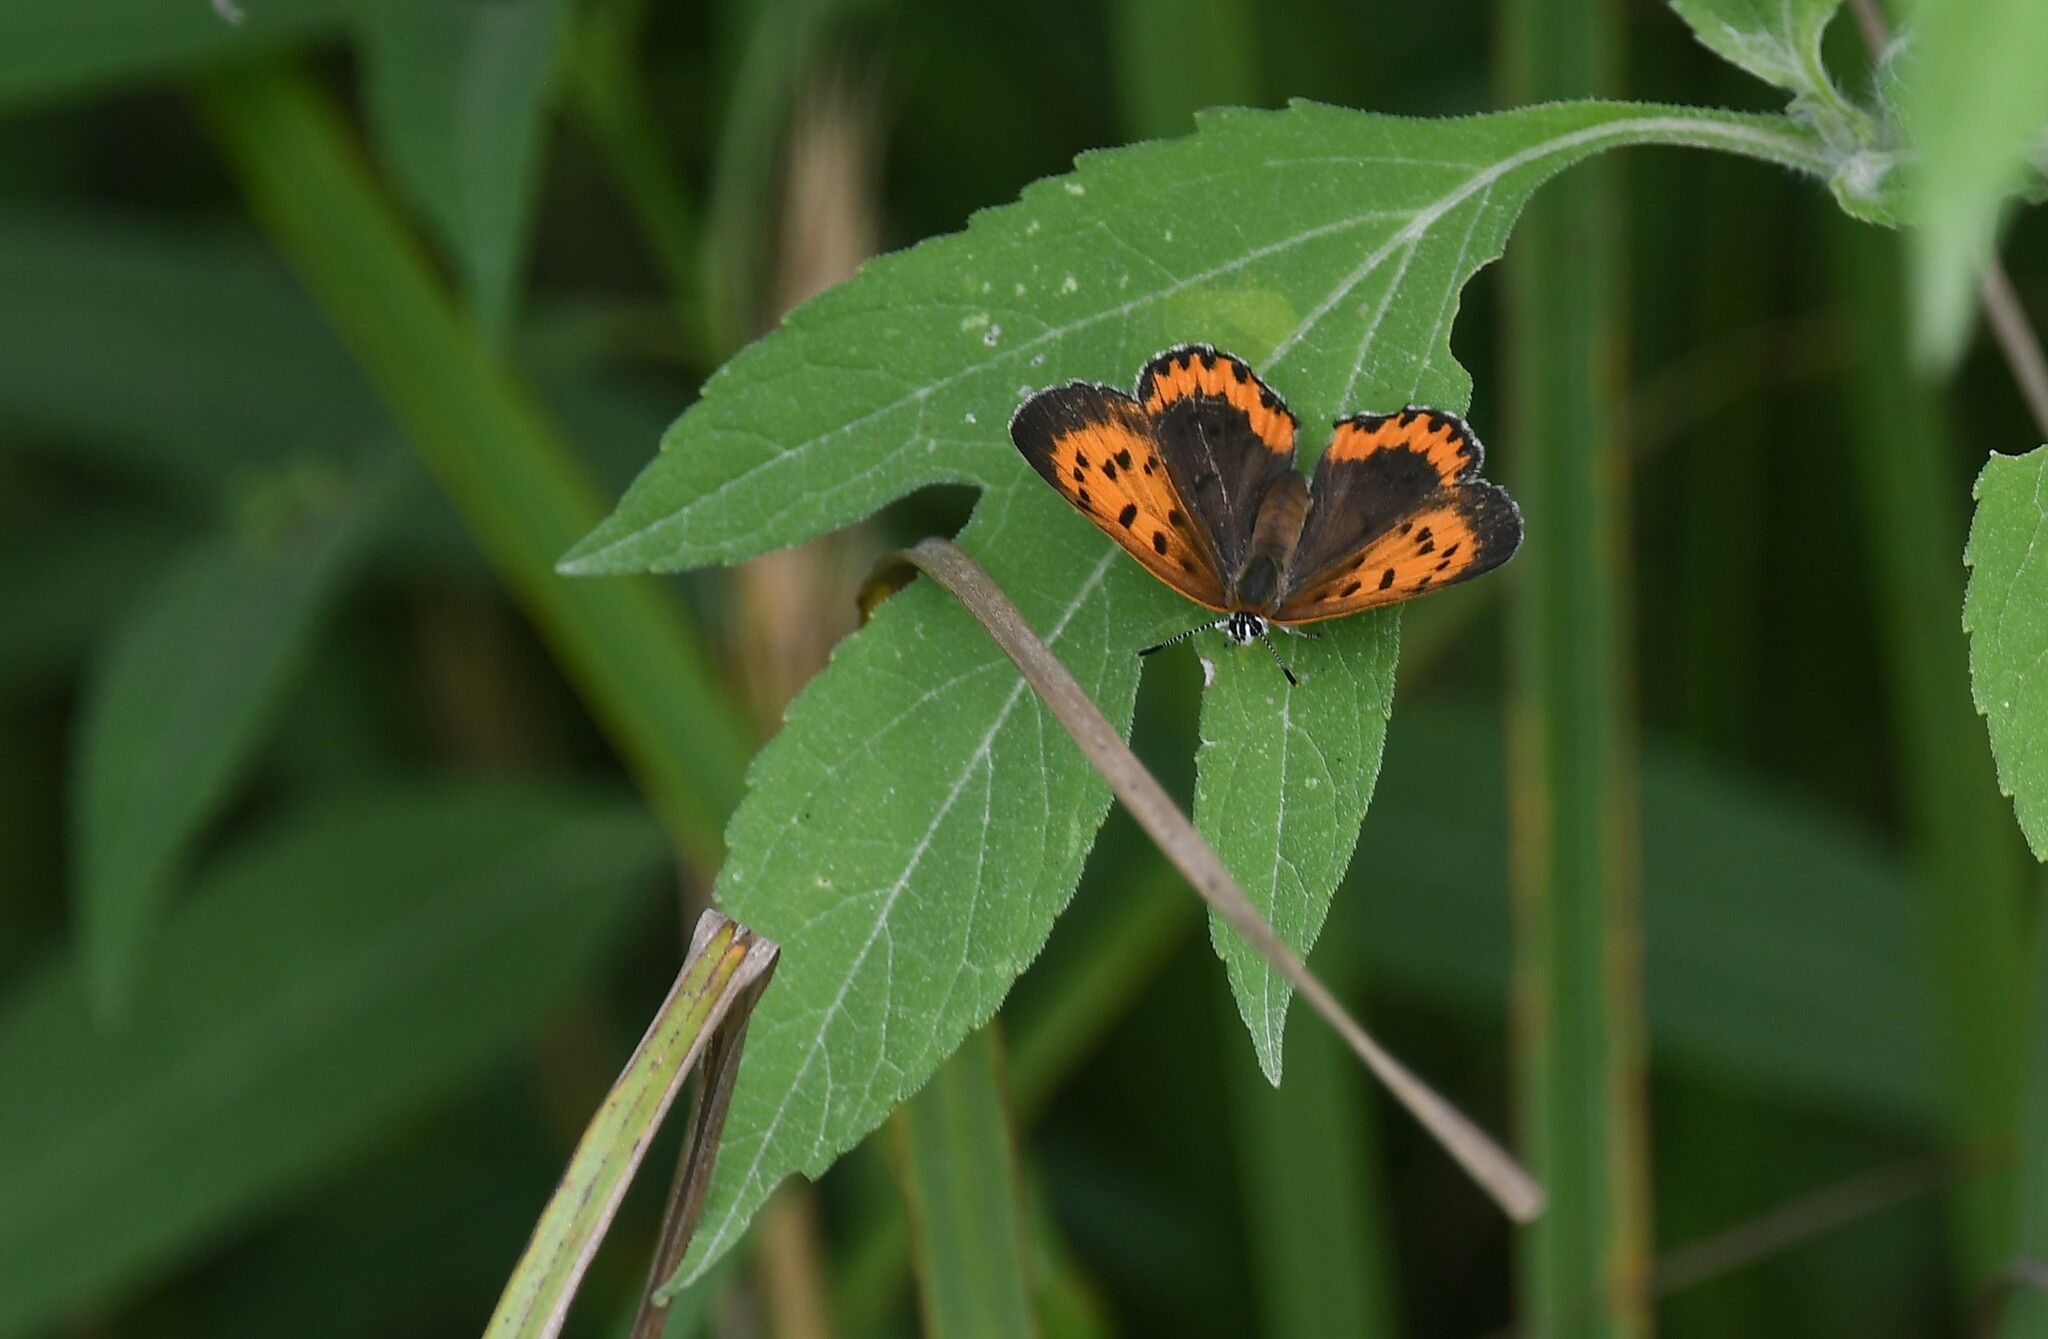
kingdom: Animalia
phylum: Arthropoda
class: Insecta
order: Lepidoptera
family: Lycaenidae
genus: Tharsalea
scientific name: Tharsalea hyllus
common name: Bronze copper
